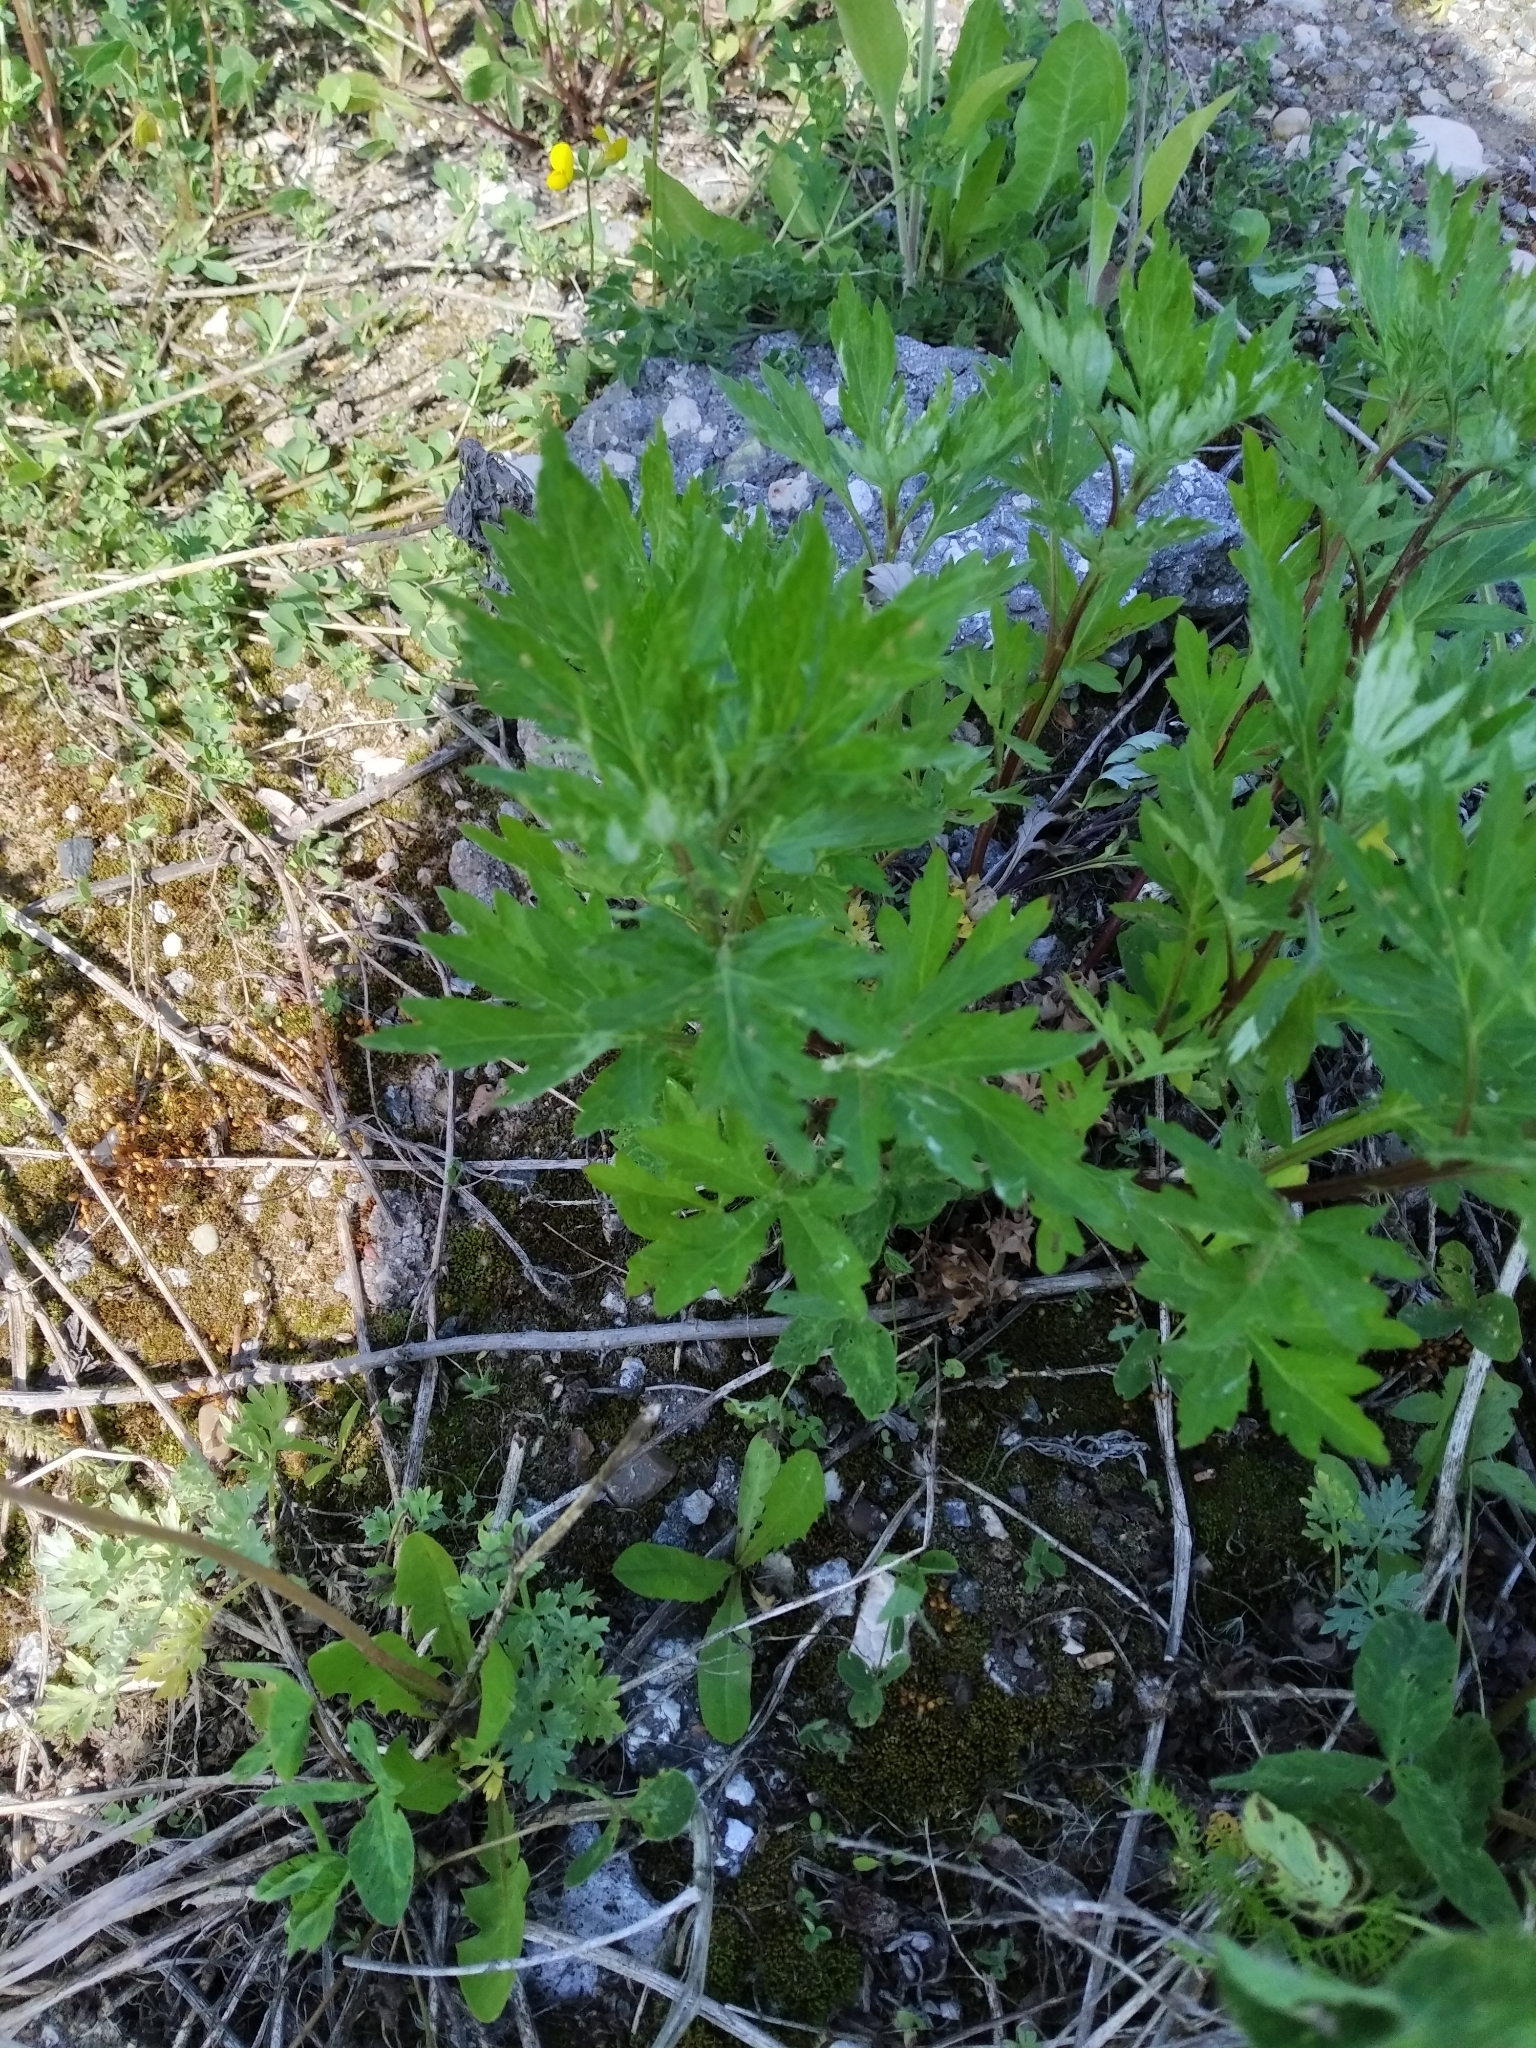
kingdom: Plantae
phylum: Tracheophyta
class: Magnoliopsida
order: Asterales
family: Asteraceae
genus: Artemisia
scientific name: Artemisia vulgaris
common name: Mugwort
